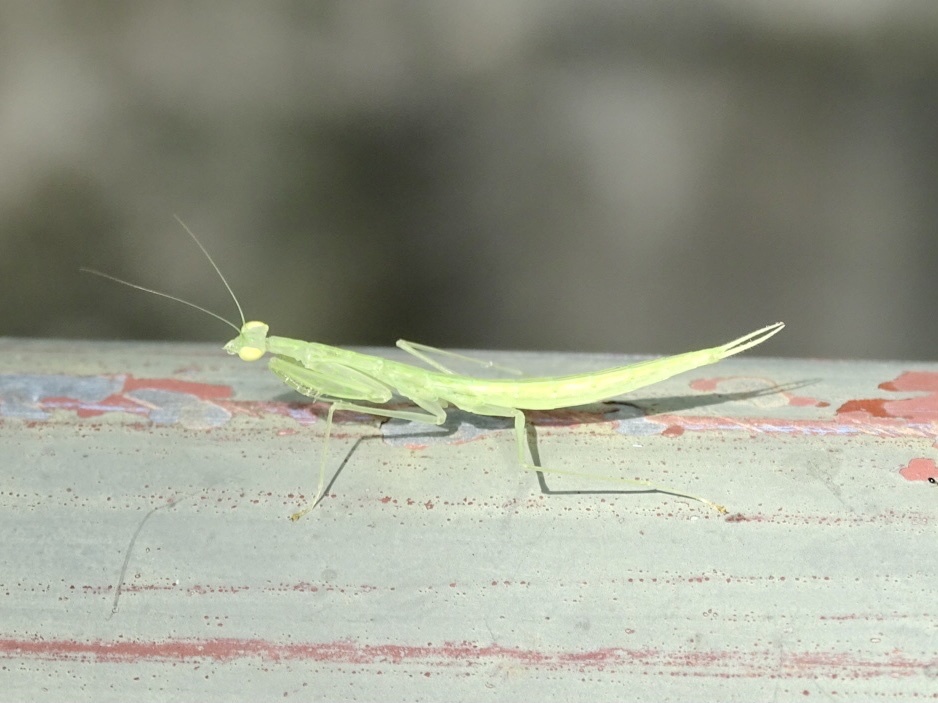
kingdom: Animalia
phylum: Arthropoda
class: Insecta
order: Mantodea
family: Nanomantidae
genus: Sinomantis
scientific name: Sinomantis denticulata
